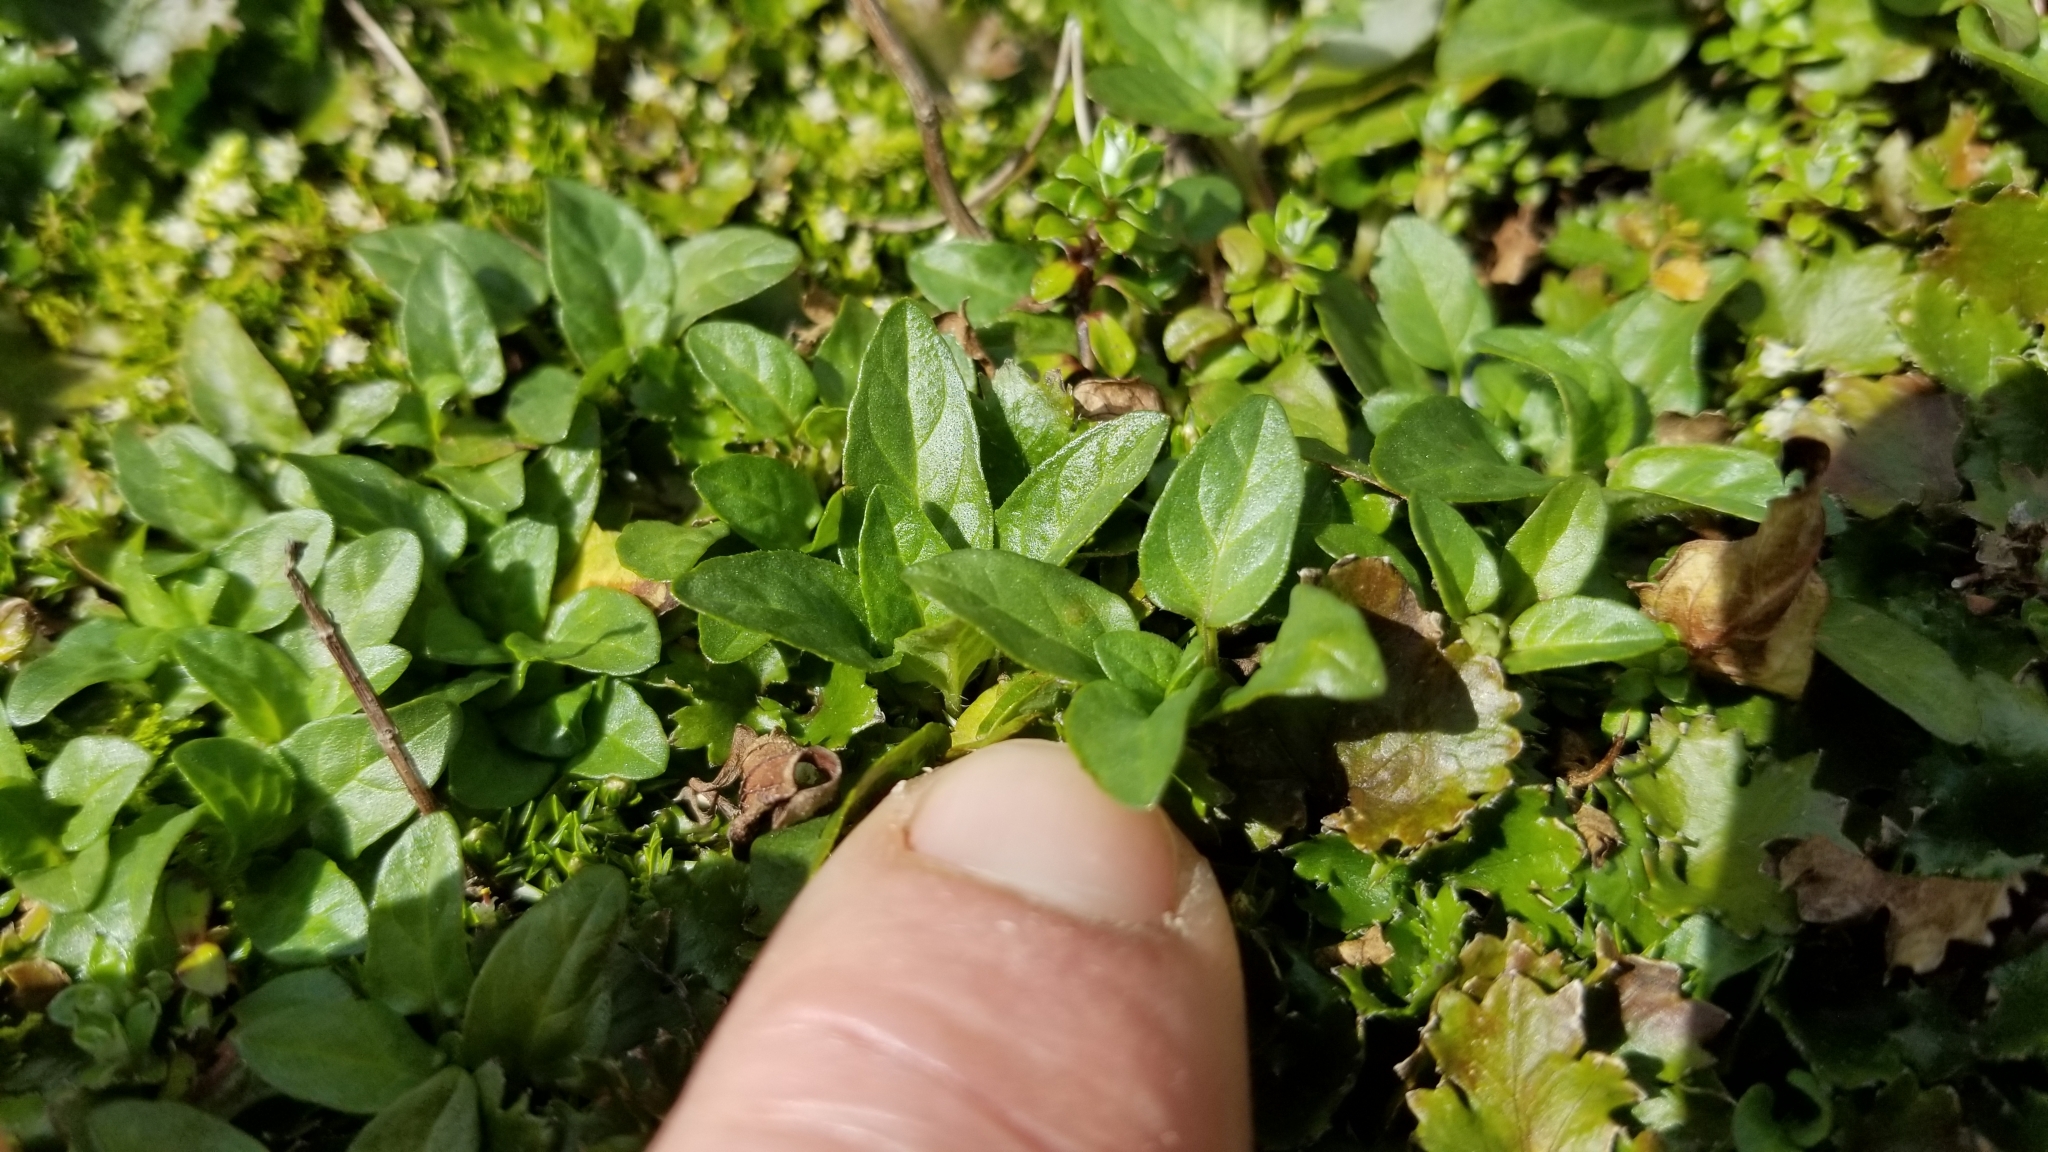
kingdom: Plantae
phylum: Tracheophyta
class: Magnoliopsida
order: Lamiales
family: Lamiaceae
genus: Prunella
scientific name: Prunella vulgaris
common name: Heal-all
